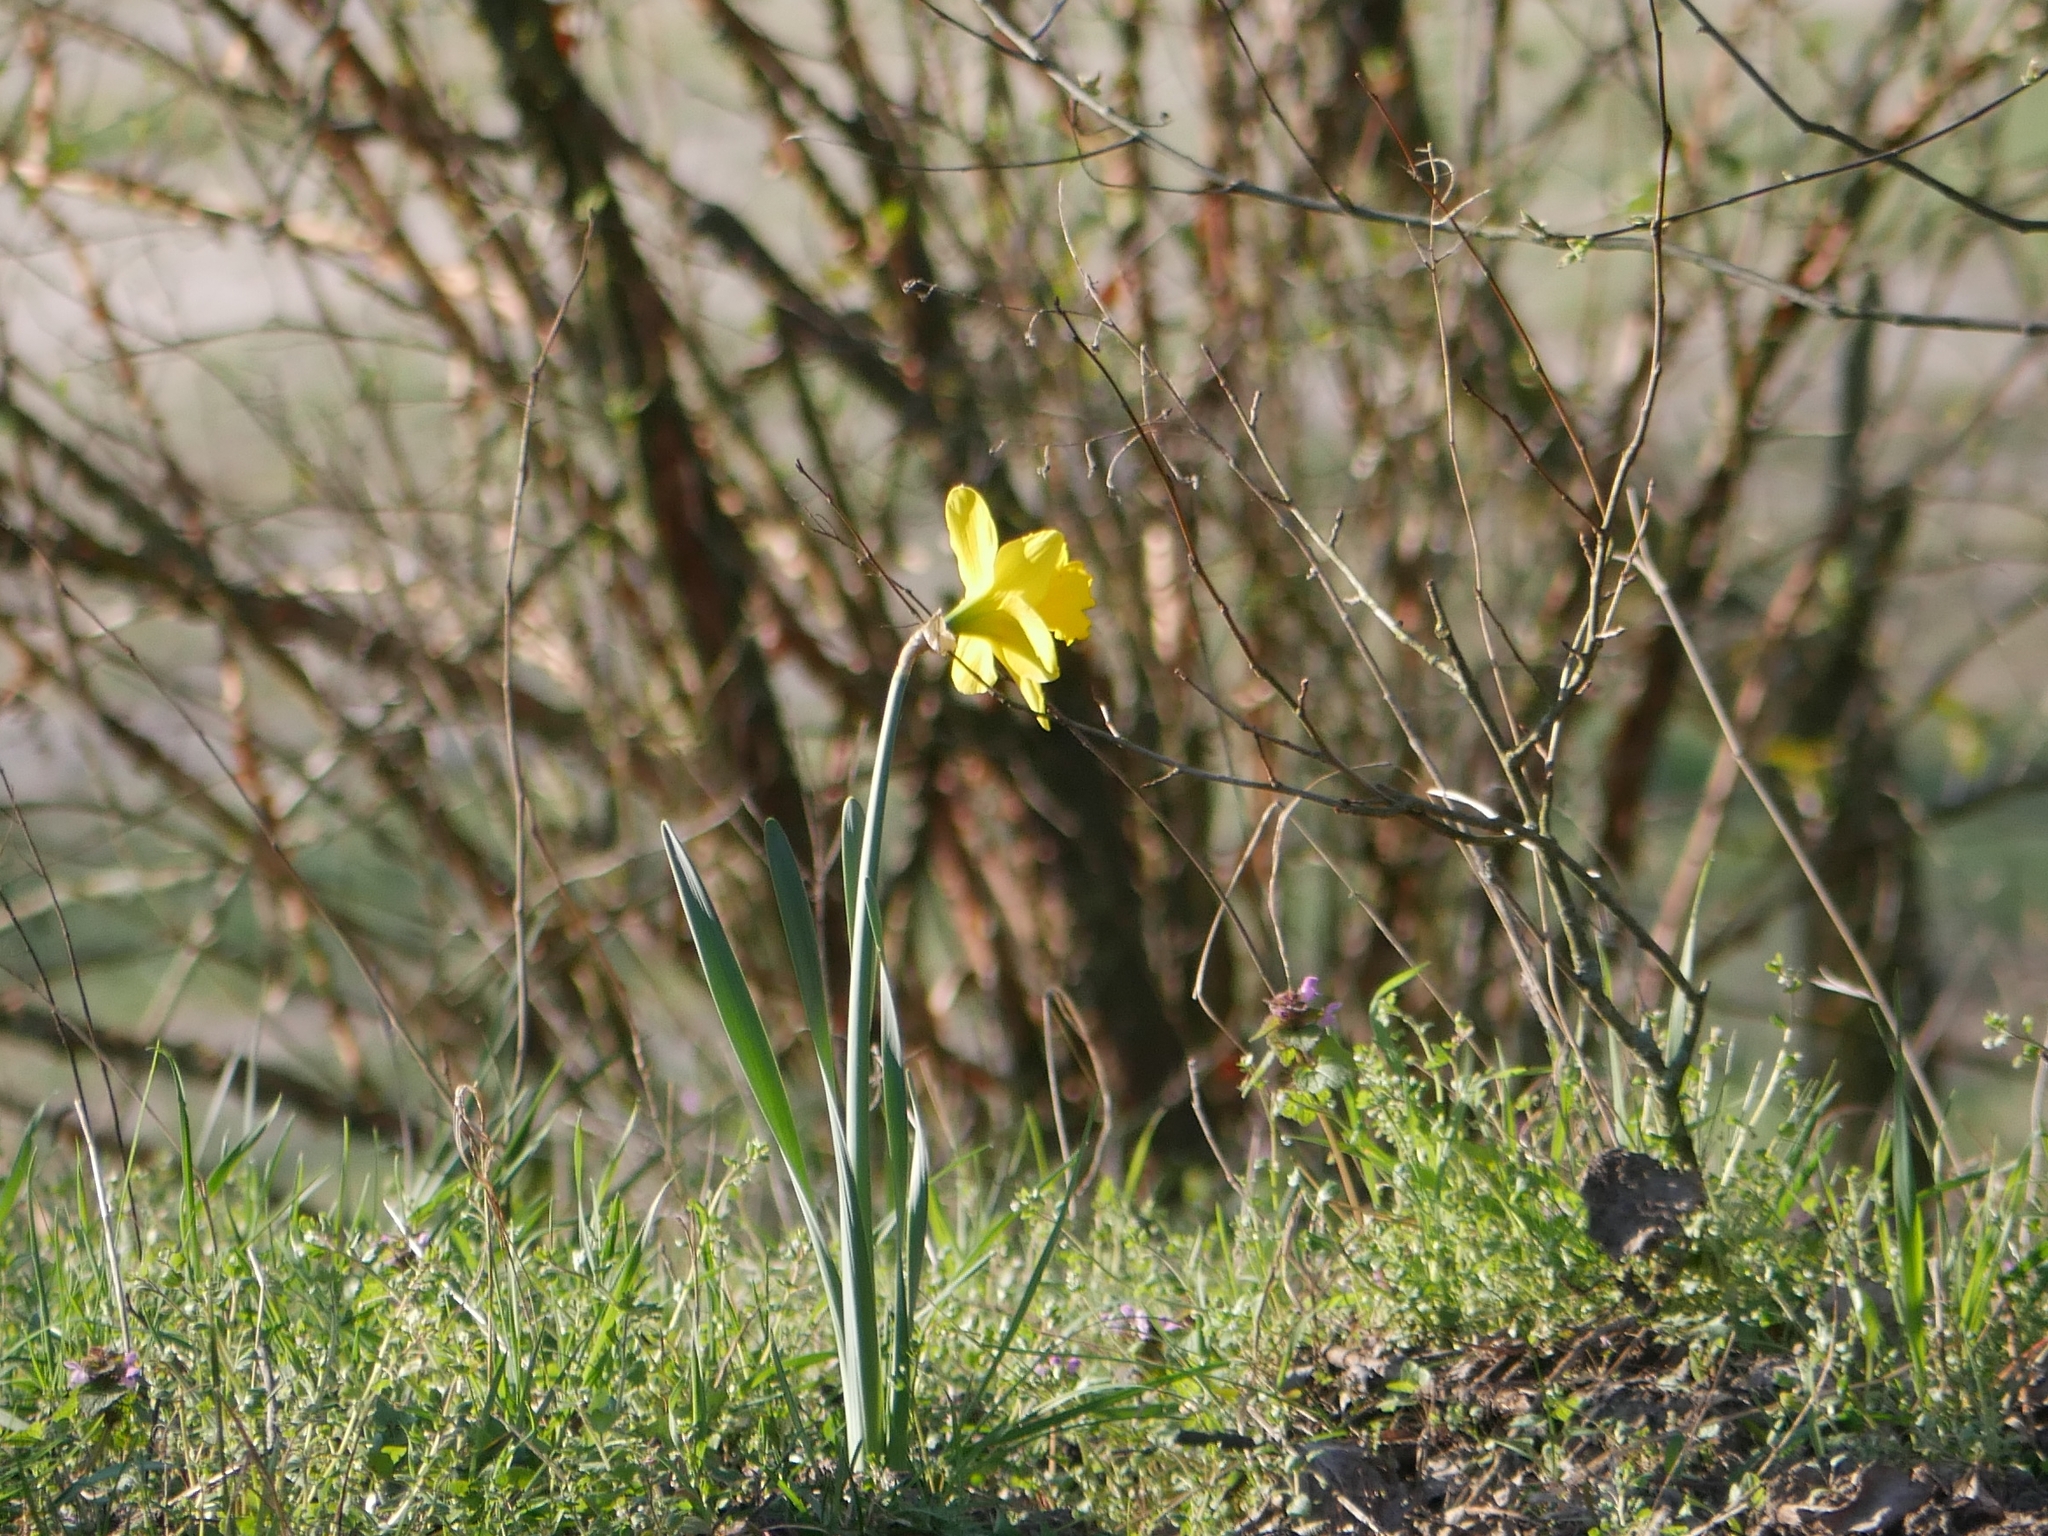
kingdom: Plantae
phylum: Tracheophyta
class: Liliopsida
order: Asparagales
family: Amaryllidaceae
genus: Narcissus
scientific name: Narcissus pseudonarcissus
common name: Daffodil
